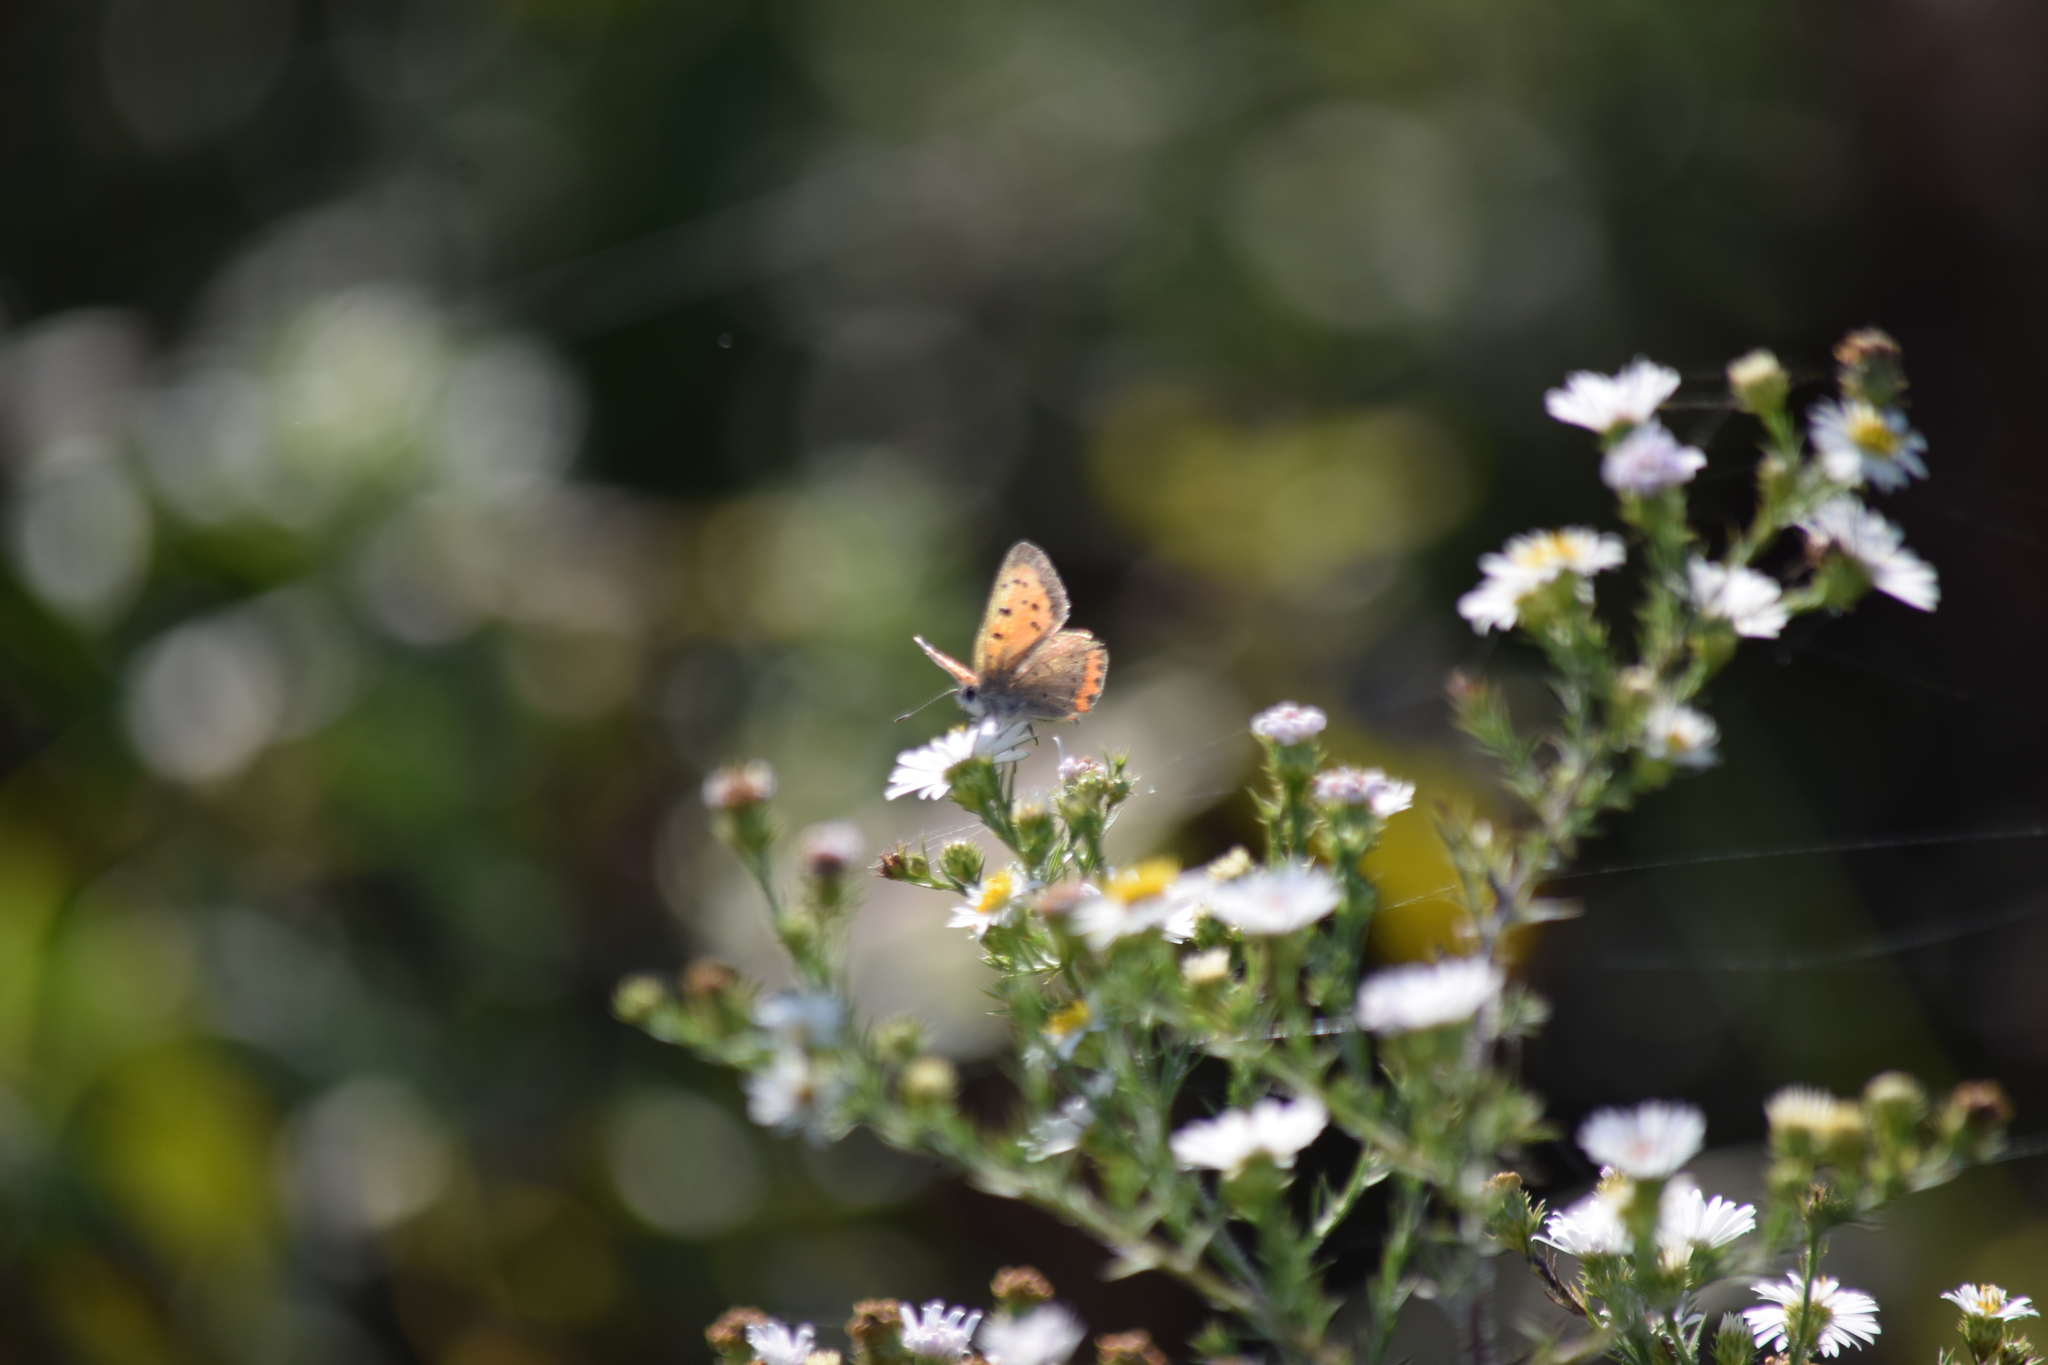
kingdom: Animalia
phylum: Arthropoda
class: Insecta
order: Lepidoptera
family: Lycaenidae
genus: Lycaena
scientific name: Lycaena hypophlaeas
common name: American copper
